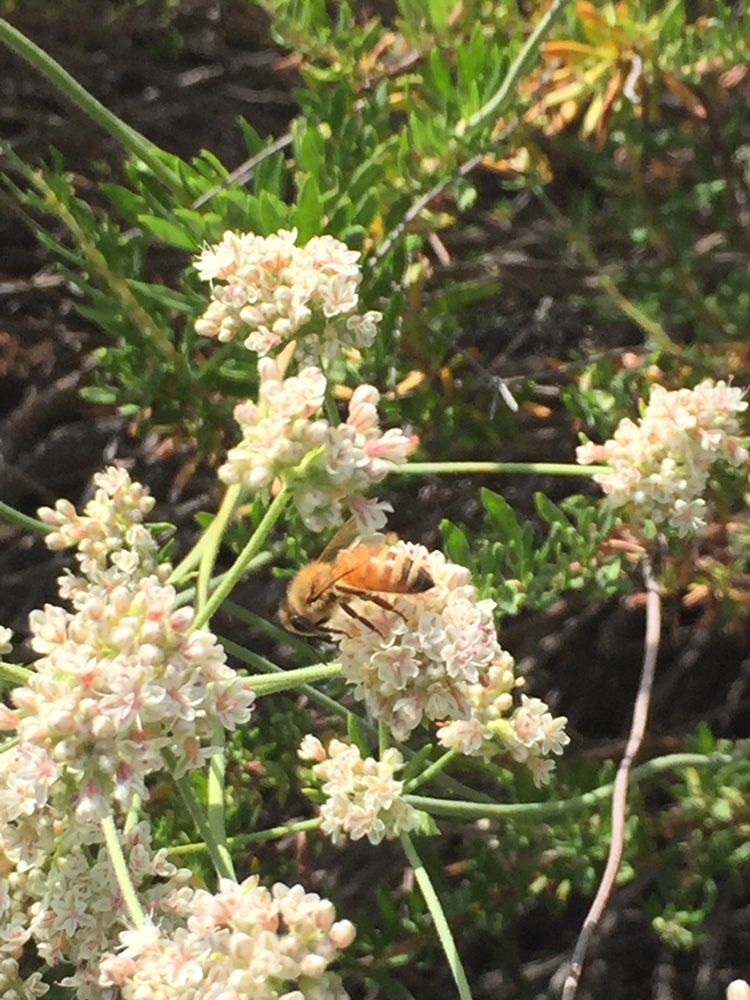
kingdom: Animalia
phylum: Arthropoda
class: Insecta
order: Hymenoptera
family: Apidae
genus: Apis
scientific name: Apis mellifera
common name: Honey bee
